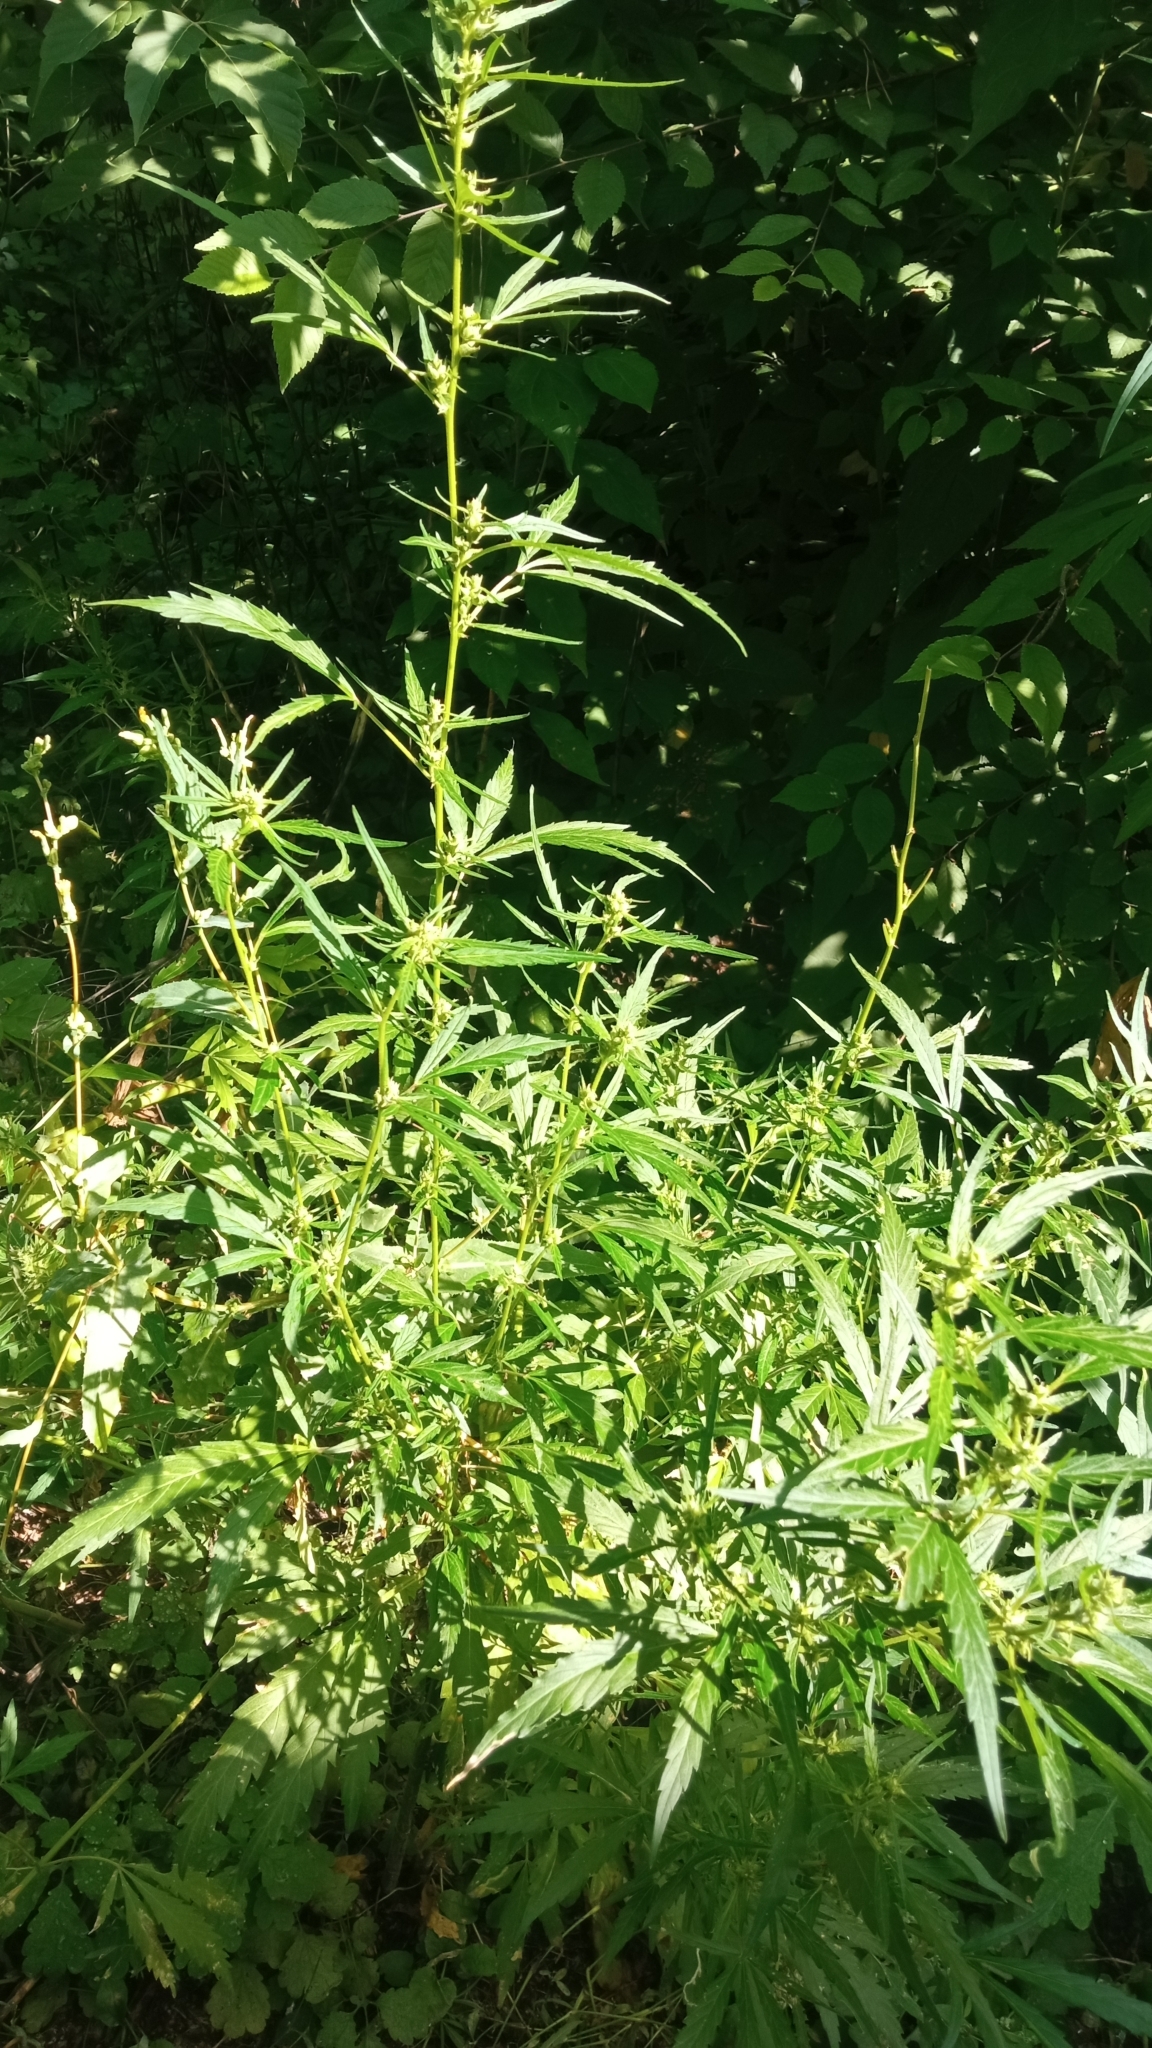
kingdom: Plantae
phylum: Tracheophyta
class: Magnoliopsida
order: Rosales
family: Cannabaceae
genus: Cannabis
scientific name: Cannabis sativa
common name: Hemp
